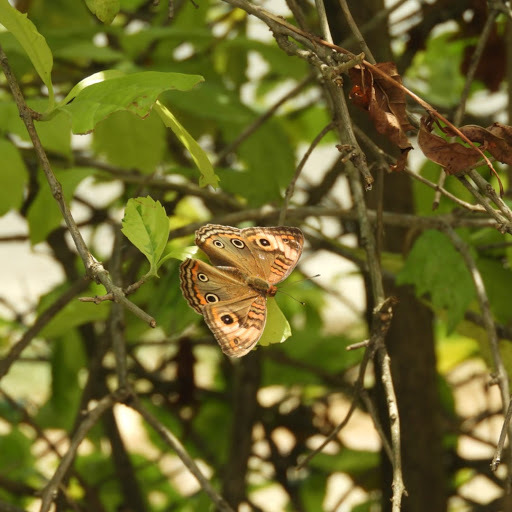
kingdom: Animalia
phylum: Arthropoda
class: Insecta
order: Lepidoptera
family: Nymphalidae
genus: Junonia
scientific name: Junonia evarete
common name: Black mangrove buckeye
